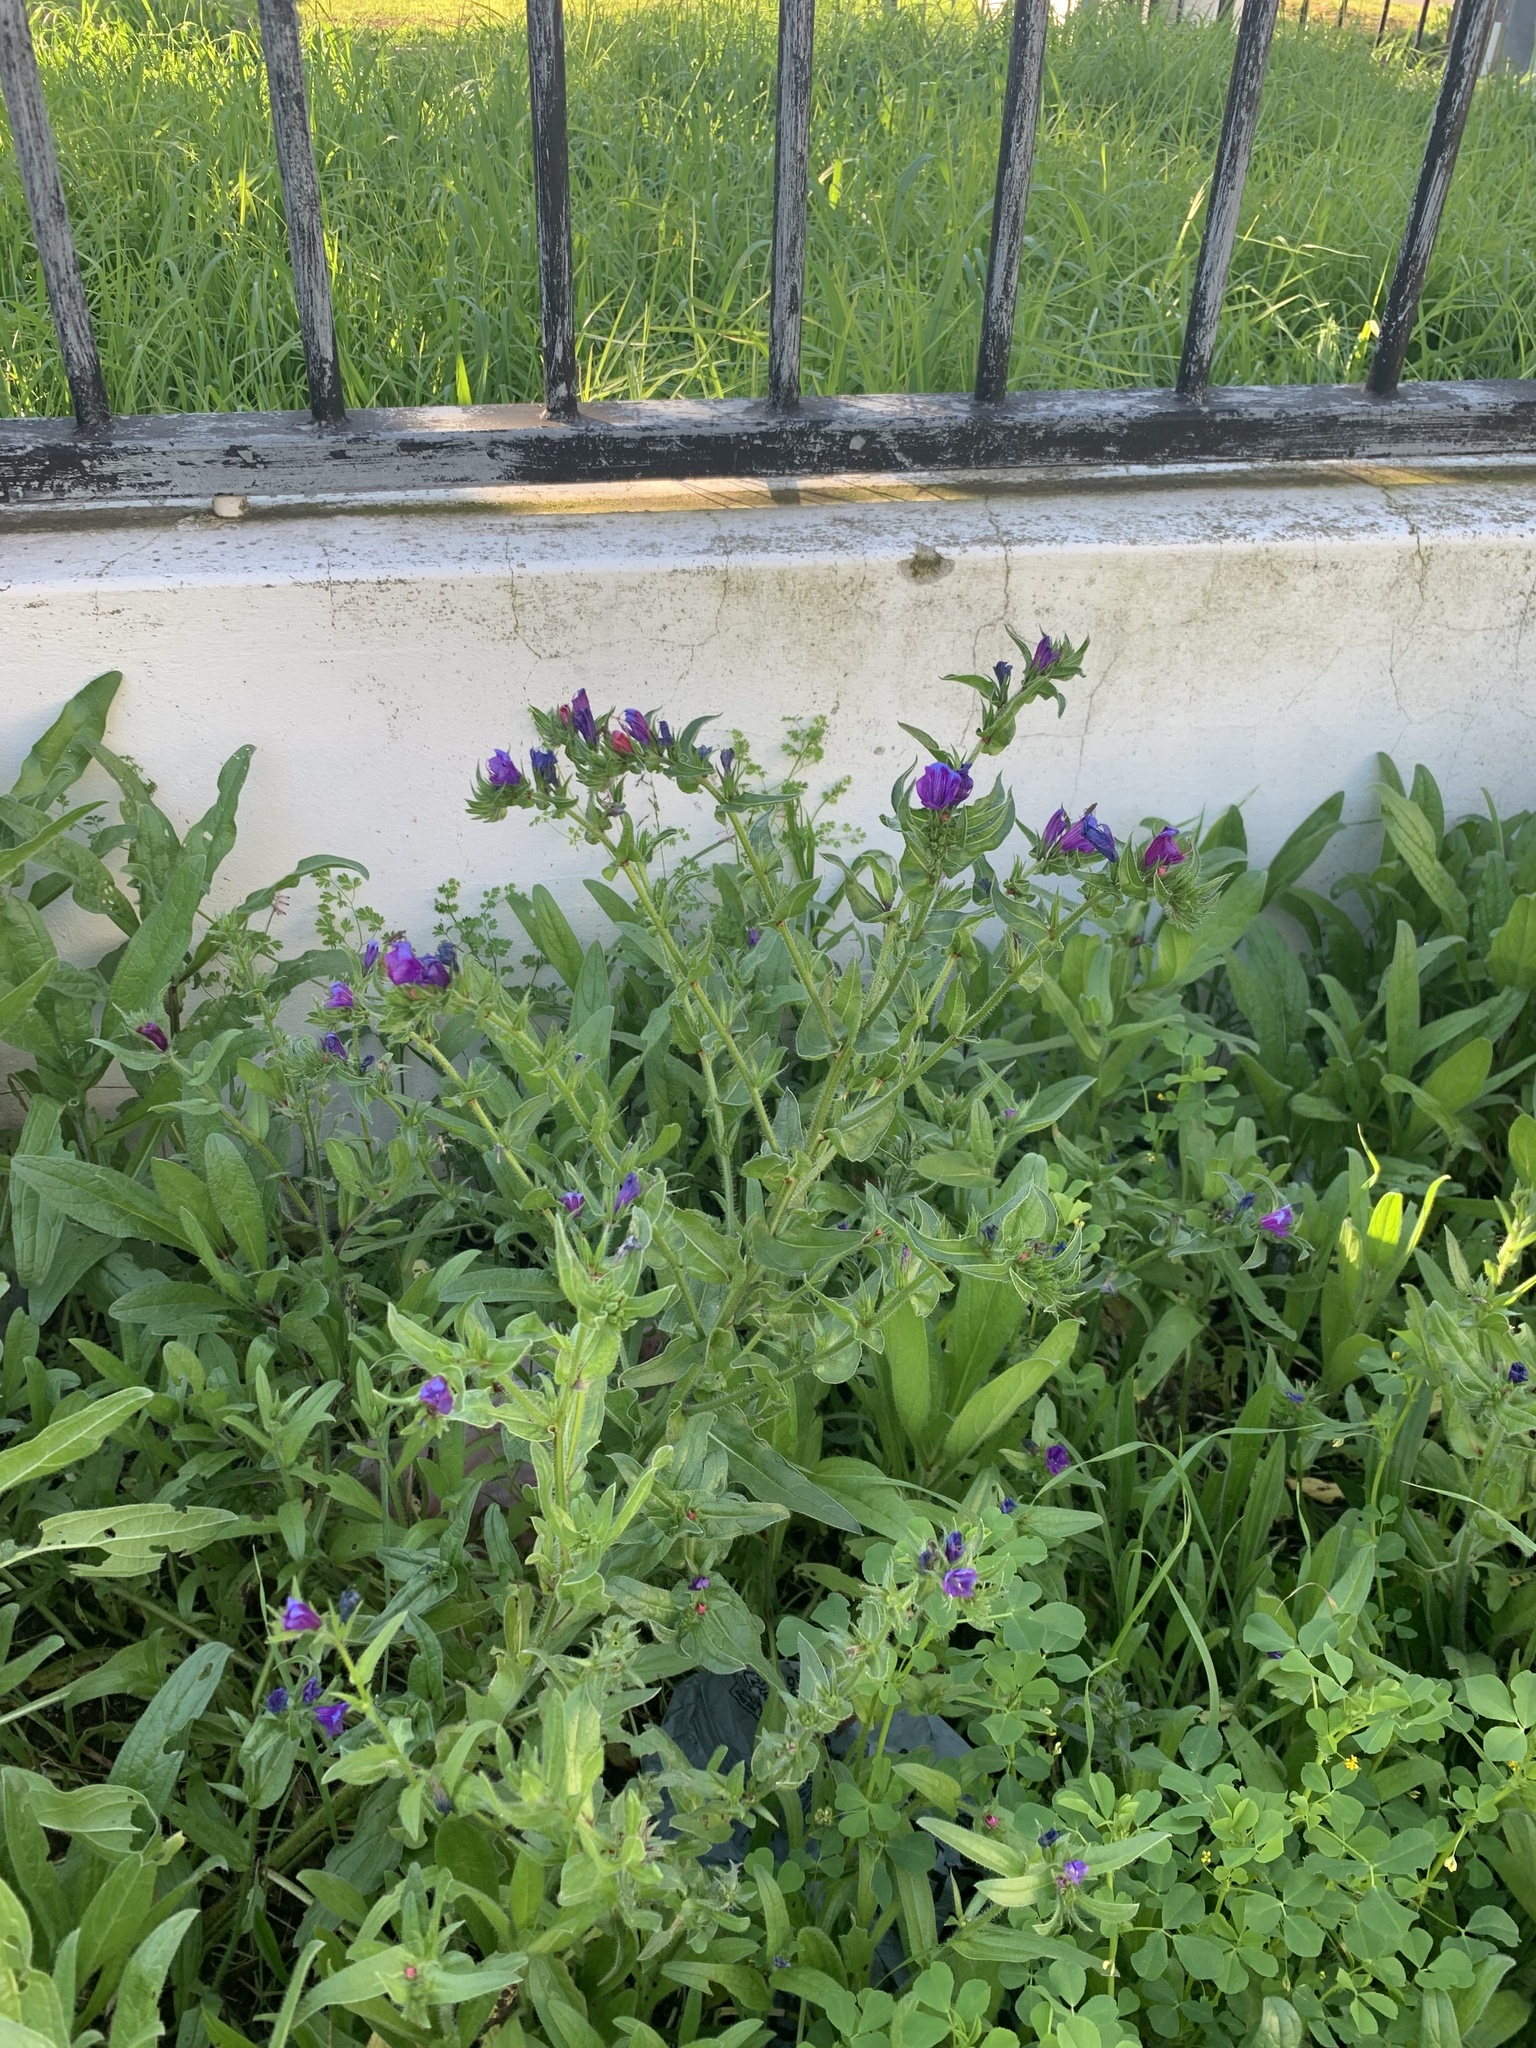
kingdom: Plantae
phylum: Tracheophyta
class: Magnoliopsida
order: Boraginales
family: Boraginaceae
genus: Echium
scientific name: Echium plantagineum
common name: Purple viper's-bugloss
